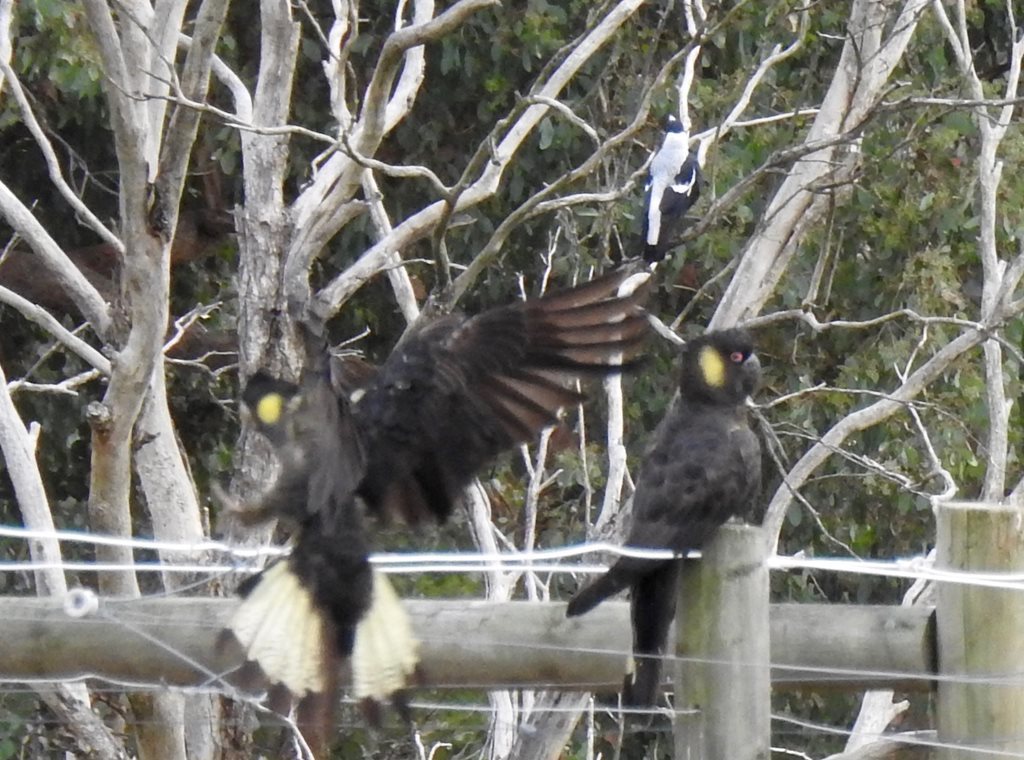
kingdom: Animalia
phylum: Chordata
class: Aves
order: Psittaciformes
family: Cacatuidae
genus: Zanda
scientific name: Zanda funerea
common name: Yellow-tailed black-cockatoo
